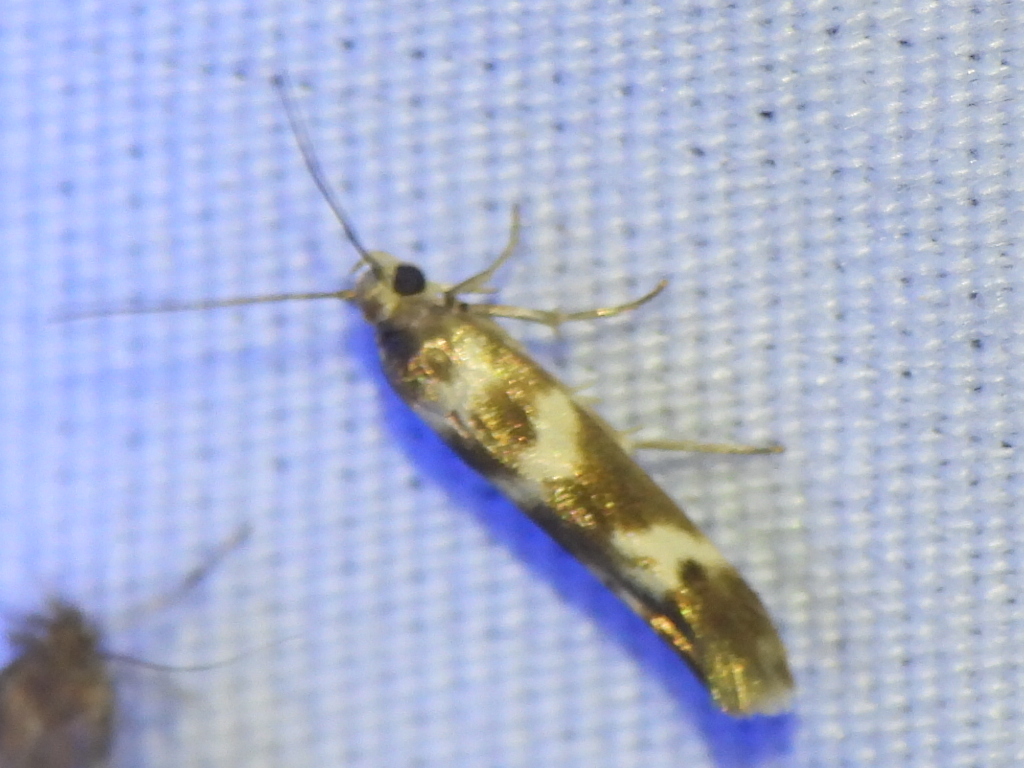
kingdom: Animalia
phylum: Arthropoda
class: Insecta
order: Lepidoptera
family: Scythrididae
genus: Scythris
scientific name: Scythris trivinctella
